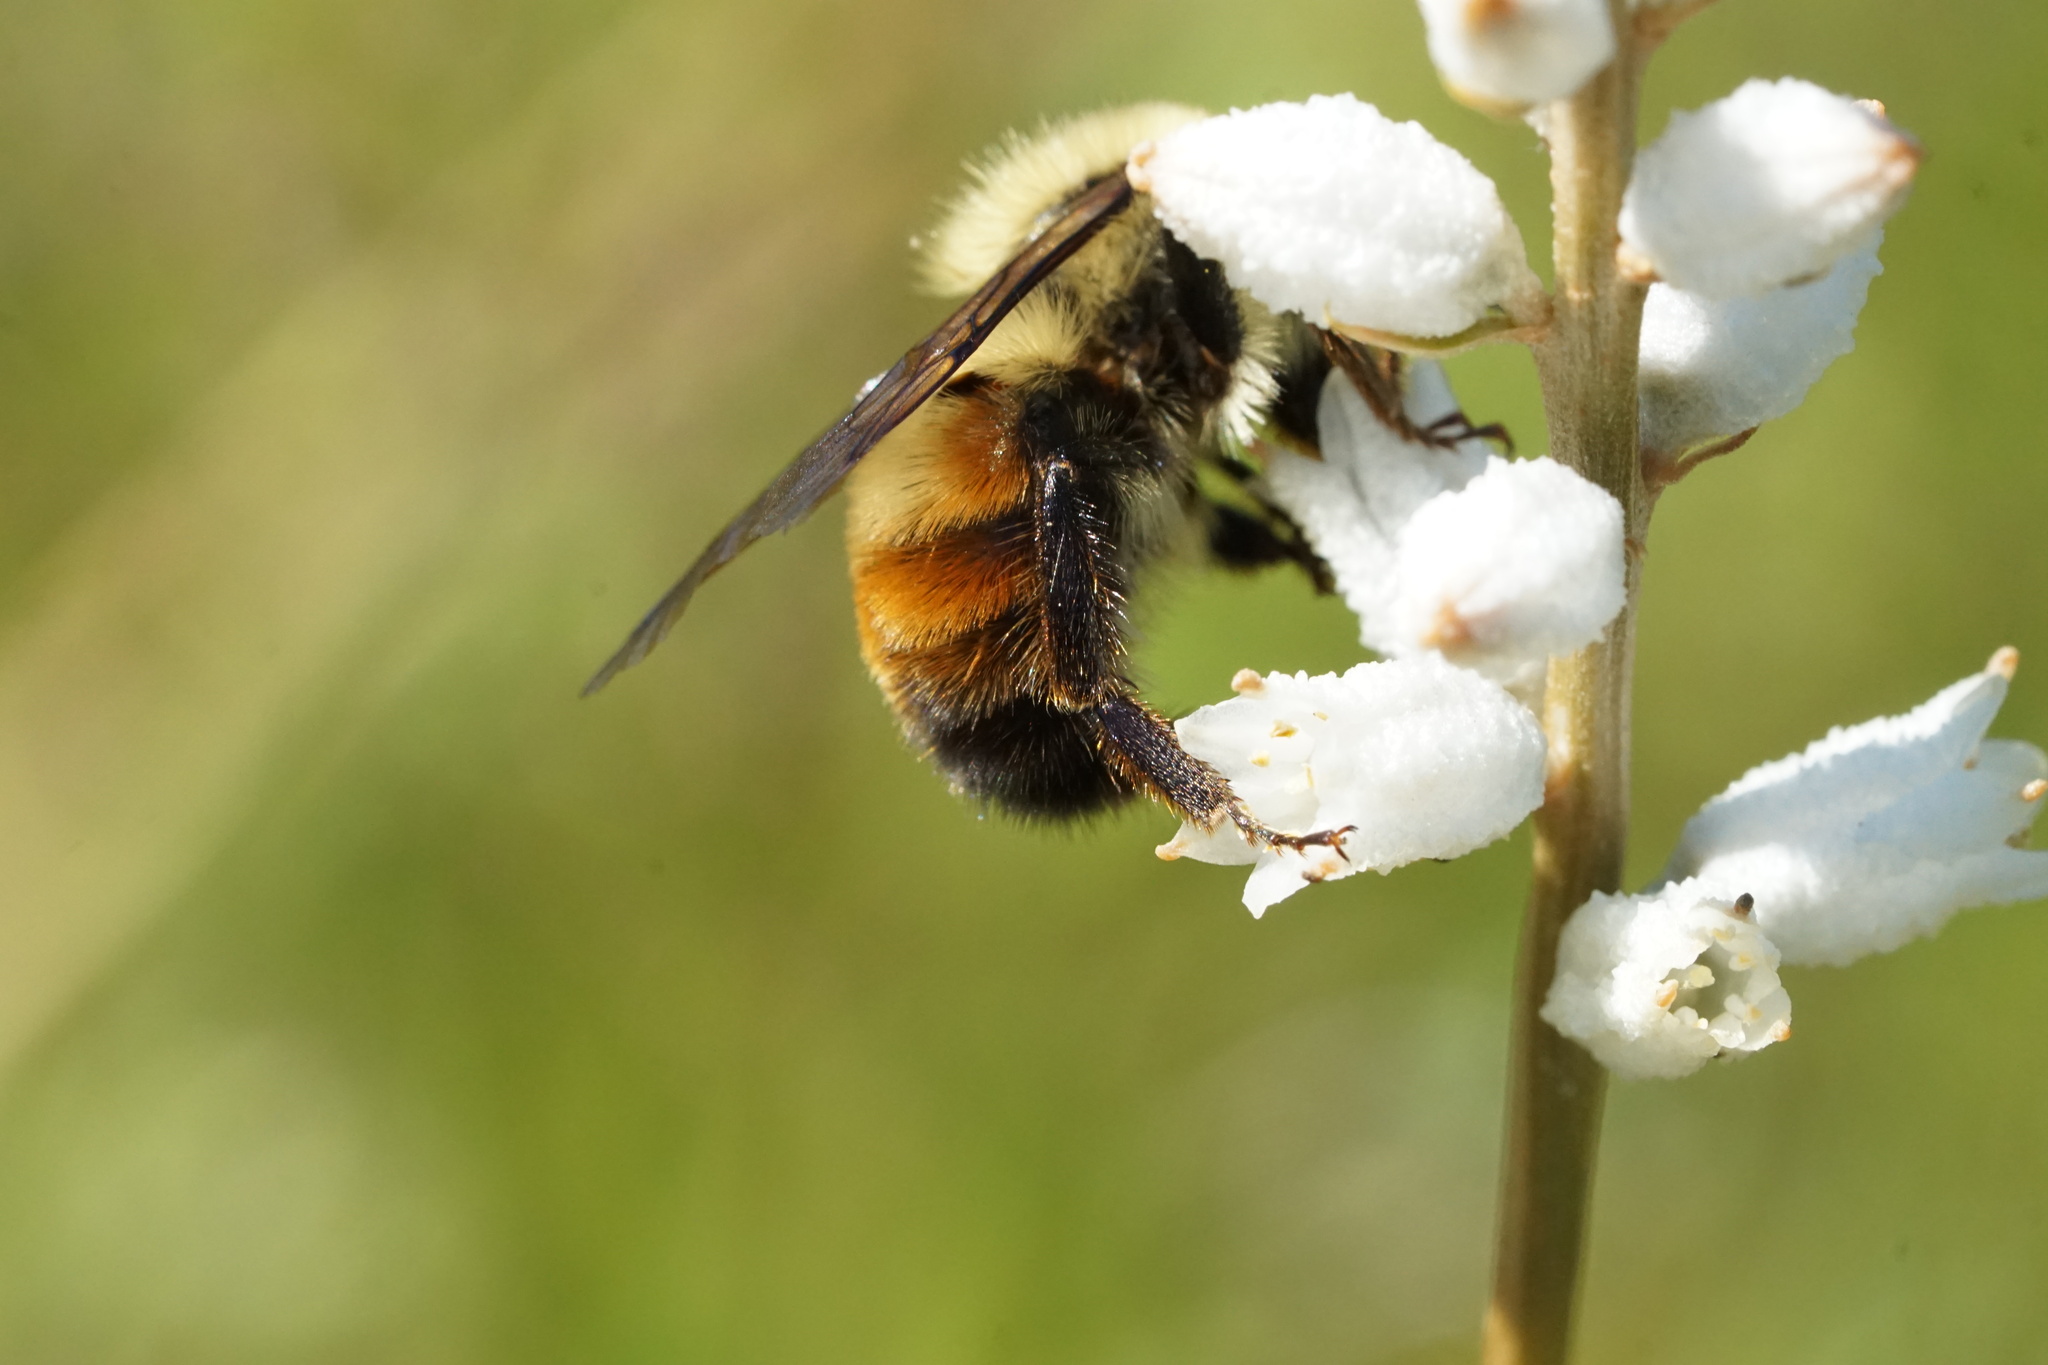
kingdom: Animalia
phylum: Arthropoda
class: Insecta
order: Hymenoptera
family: Apidae
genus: Bombus
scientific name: Bombus bimaculatus
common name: Two-spotted bumble bee
